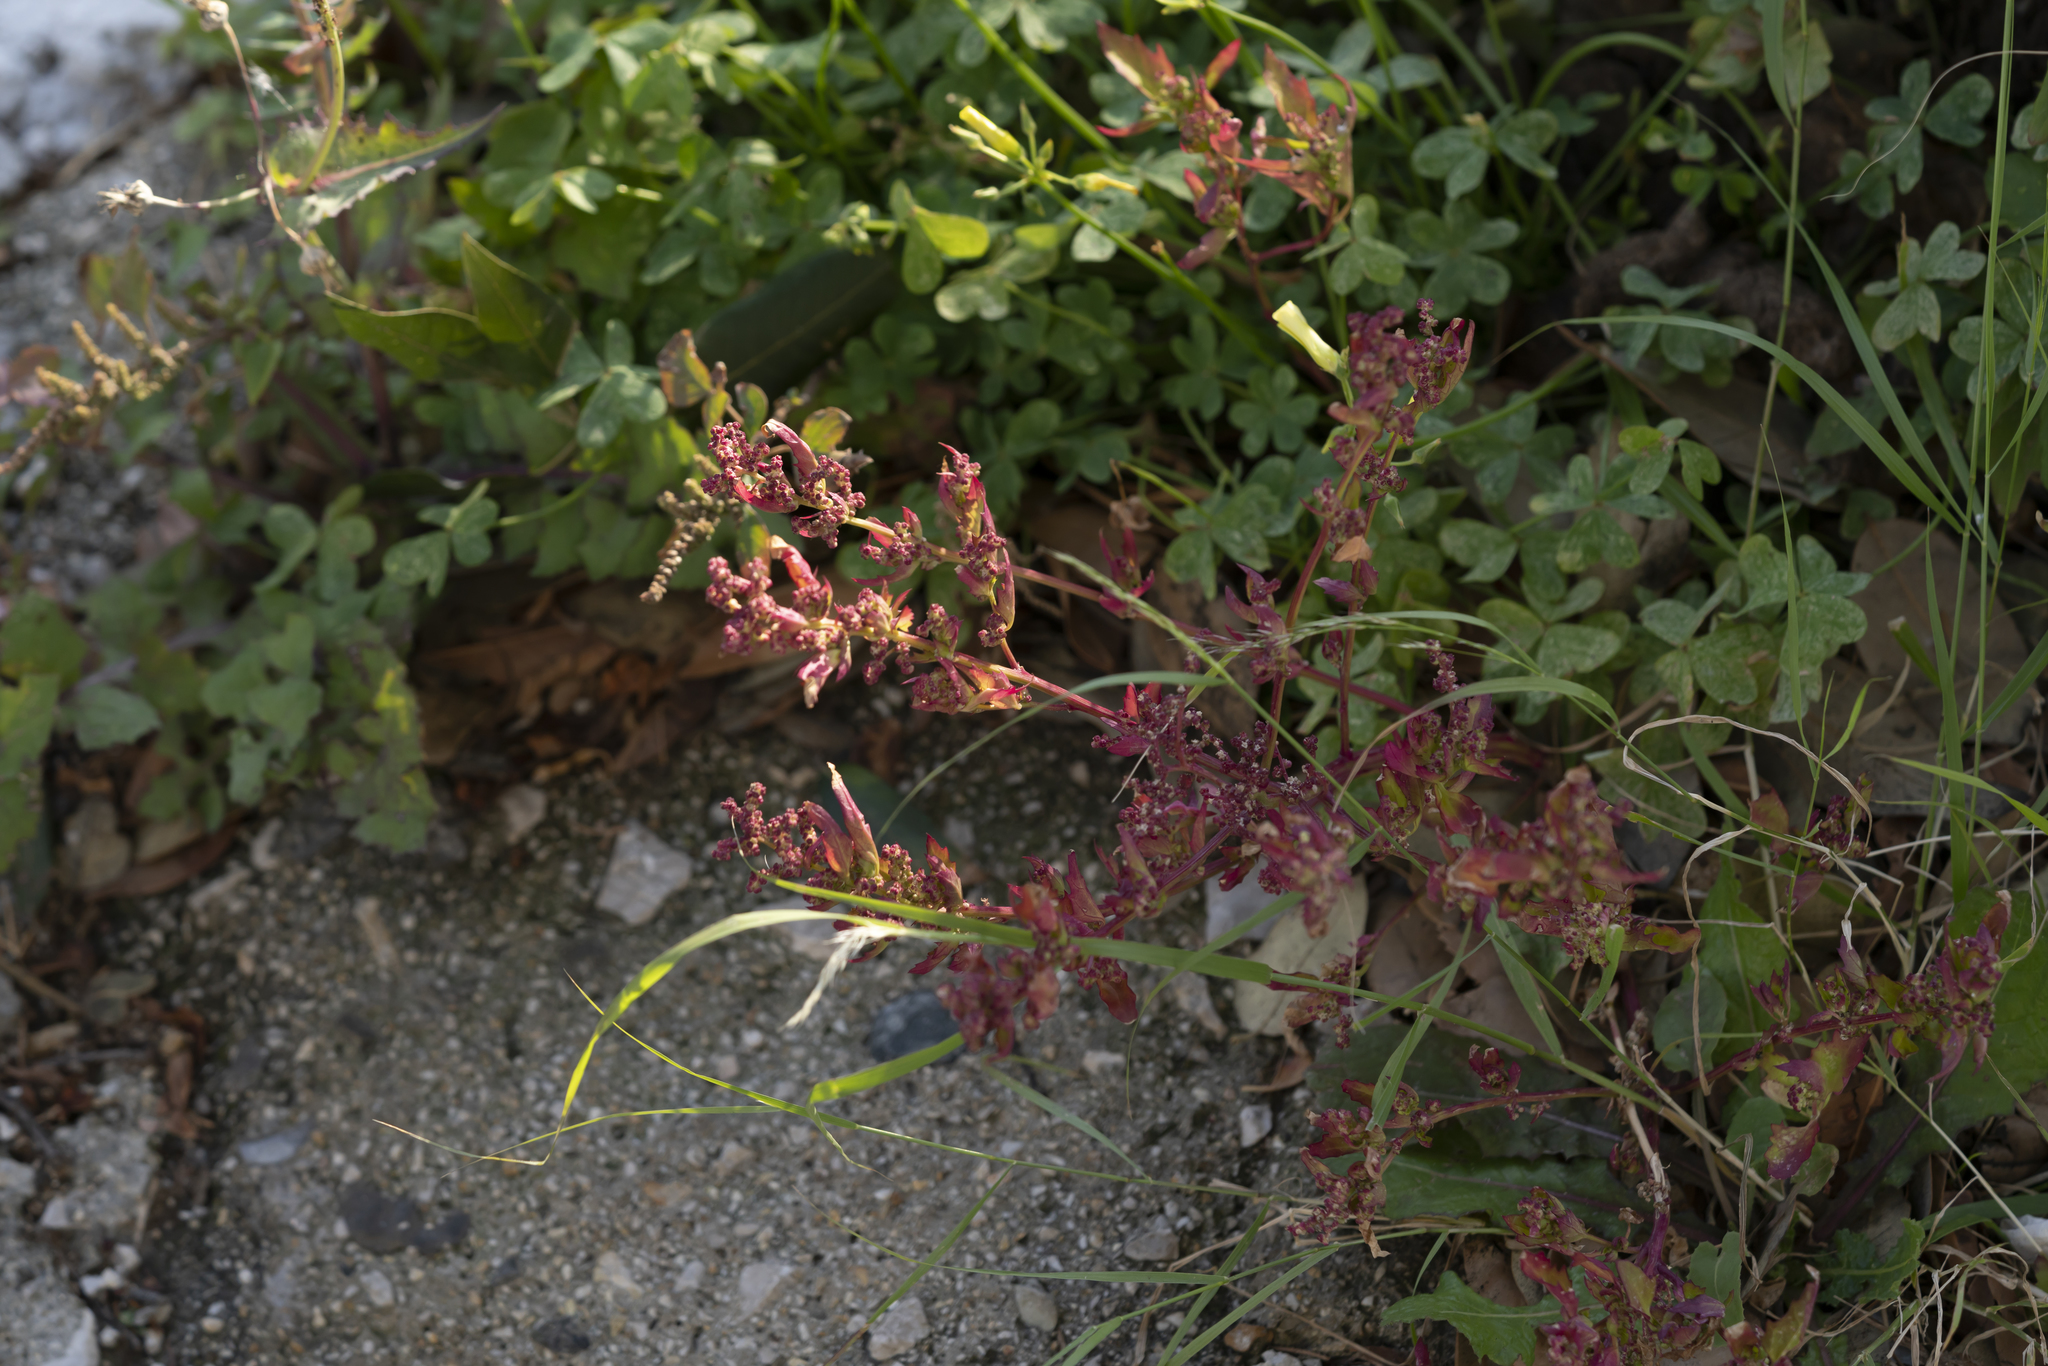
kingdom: Plantae
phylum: Tracheophyta
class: Magnoliopsida
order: Caryophyllales
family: Amaranthaceae
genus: Chenopodiastrum
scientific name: Chenopodiastrum murale
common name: Sowbane
